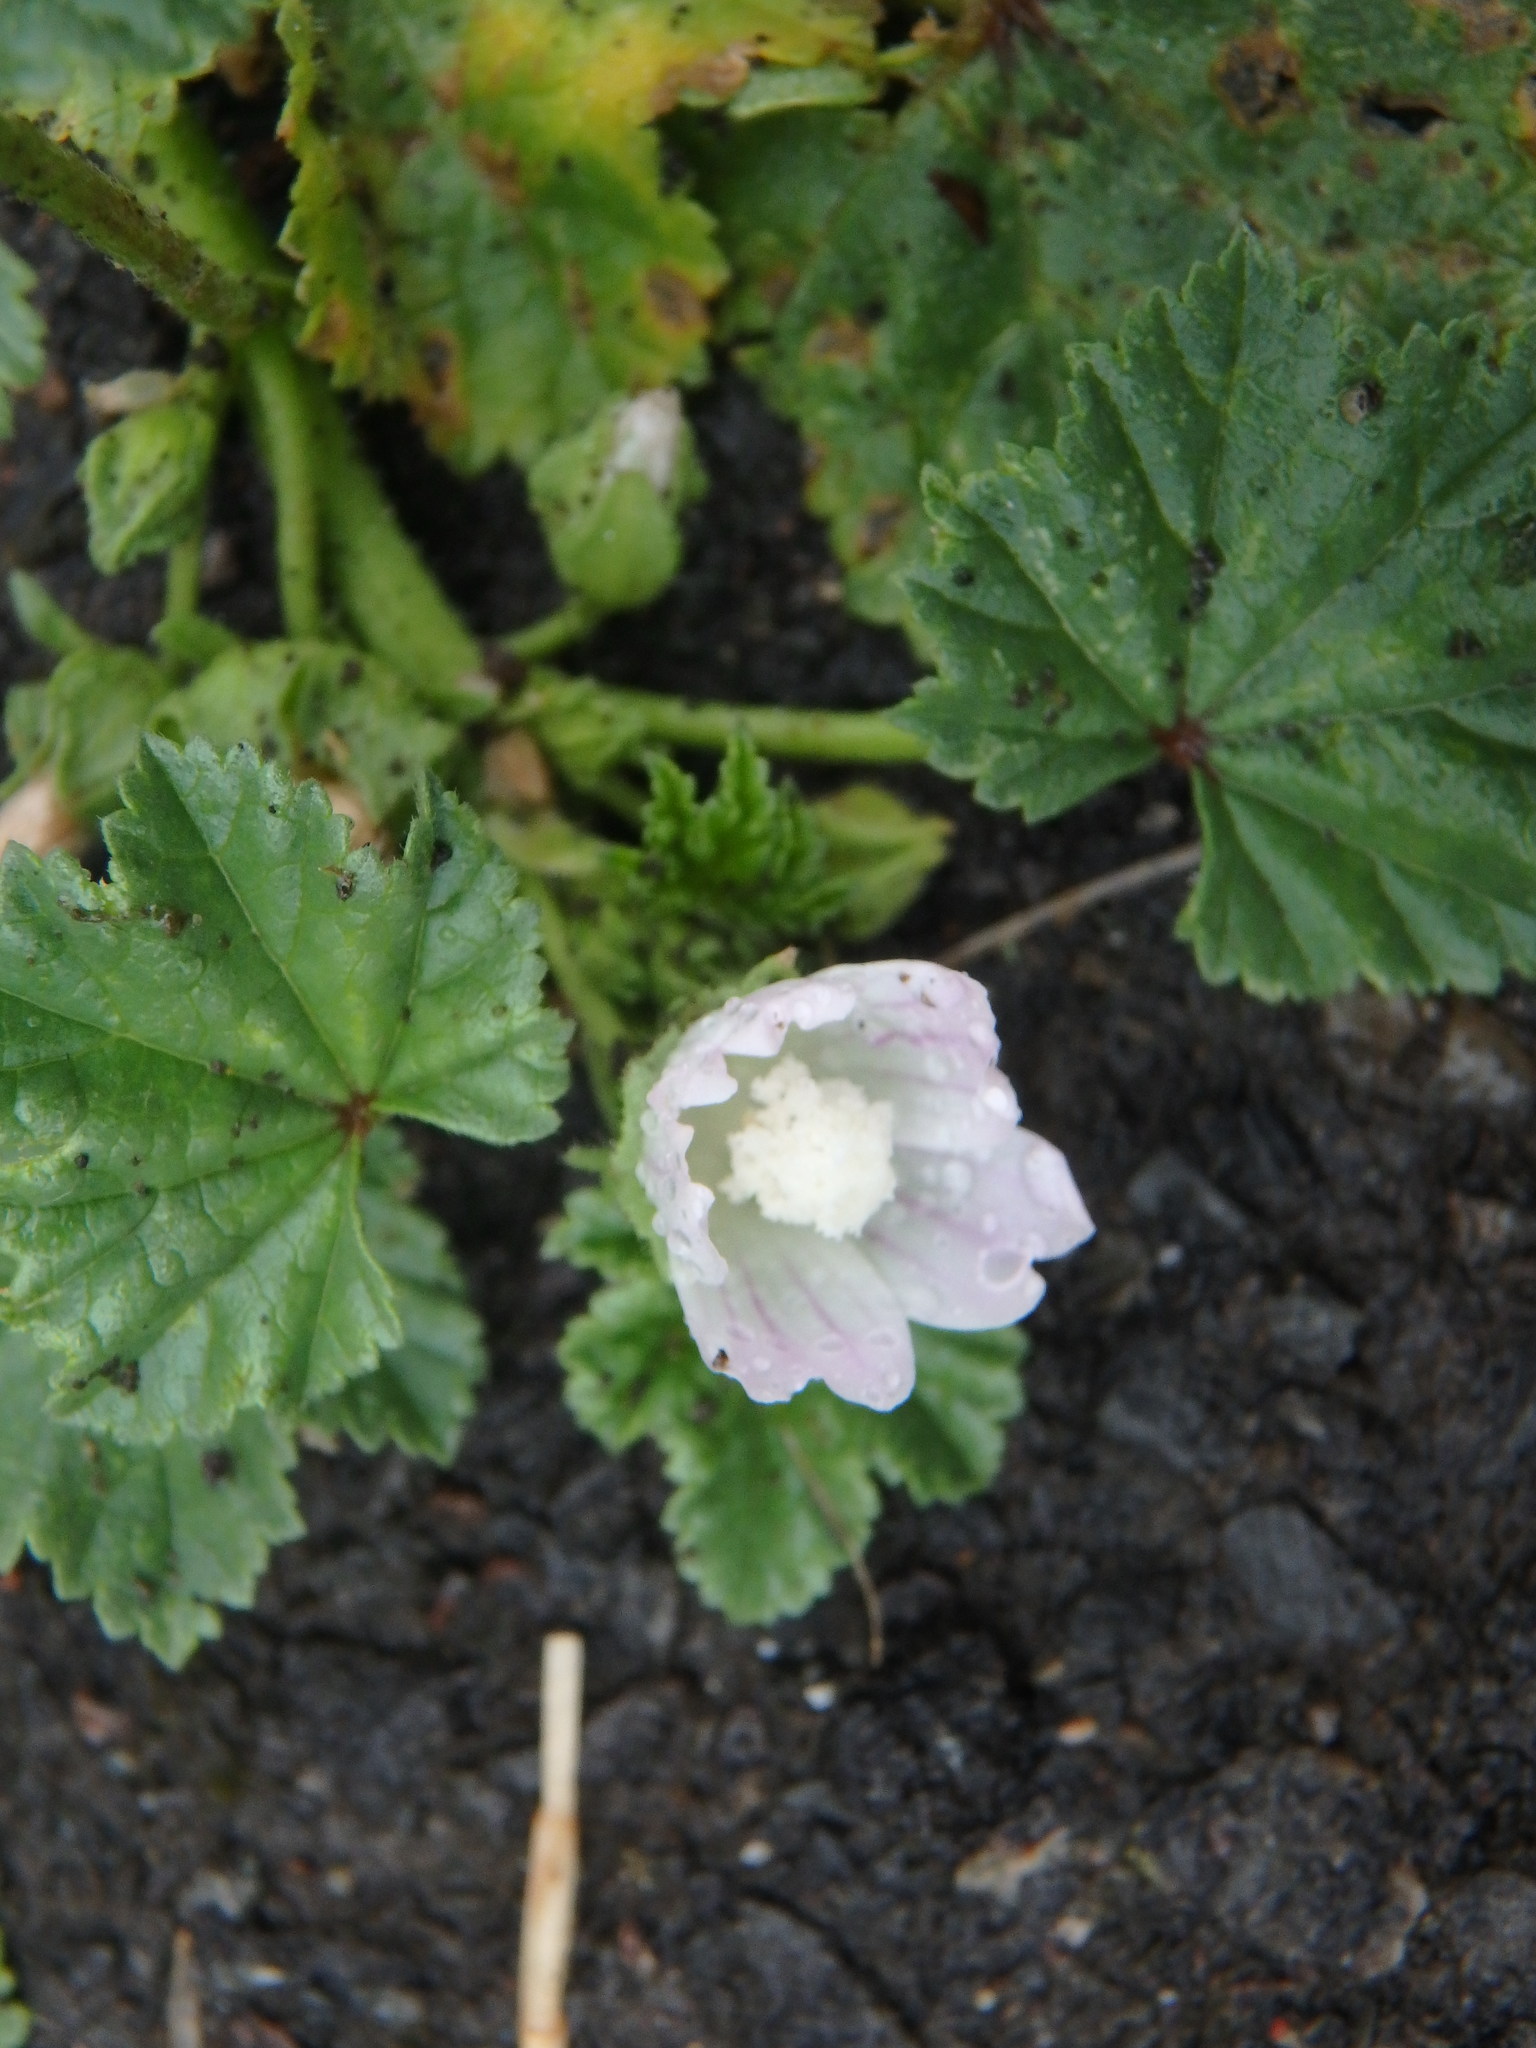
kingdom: Plantae
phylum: Tracheophyta
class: Magnoliopsida
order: Malvales
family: Malvaceae
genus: Malva
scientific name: Malva neglecta
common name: Common mallow
